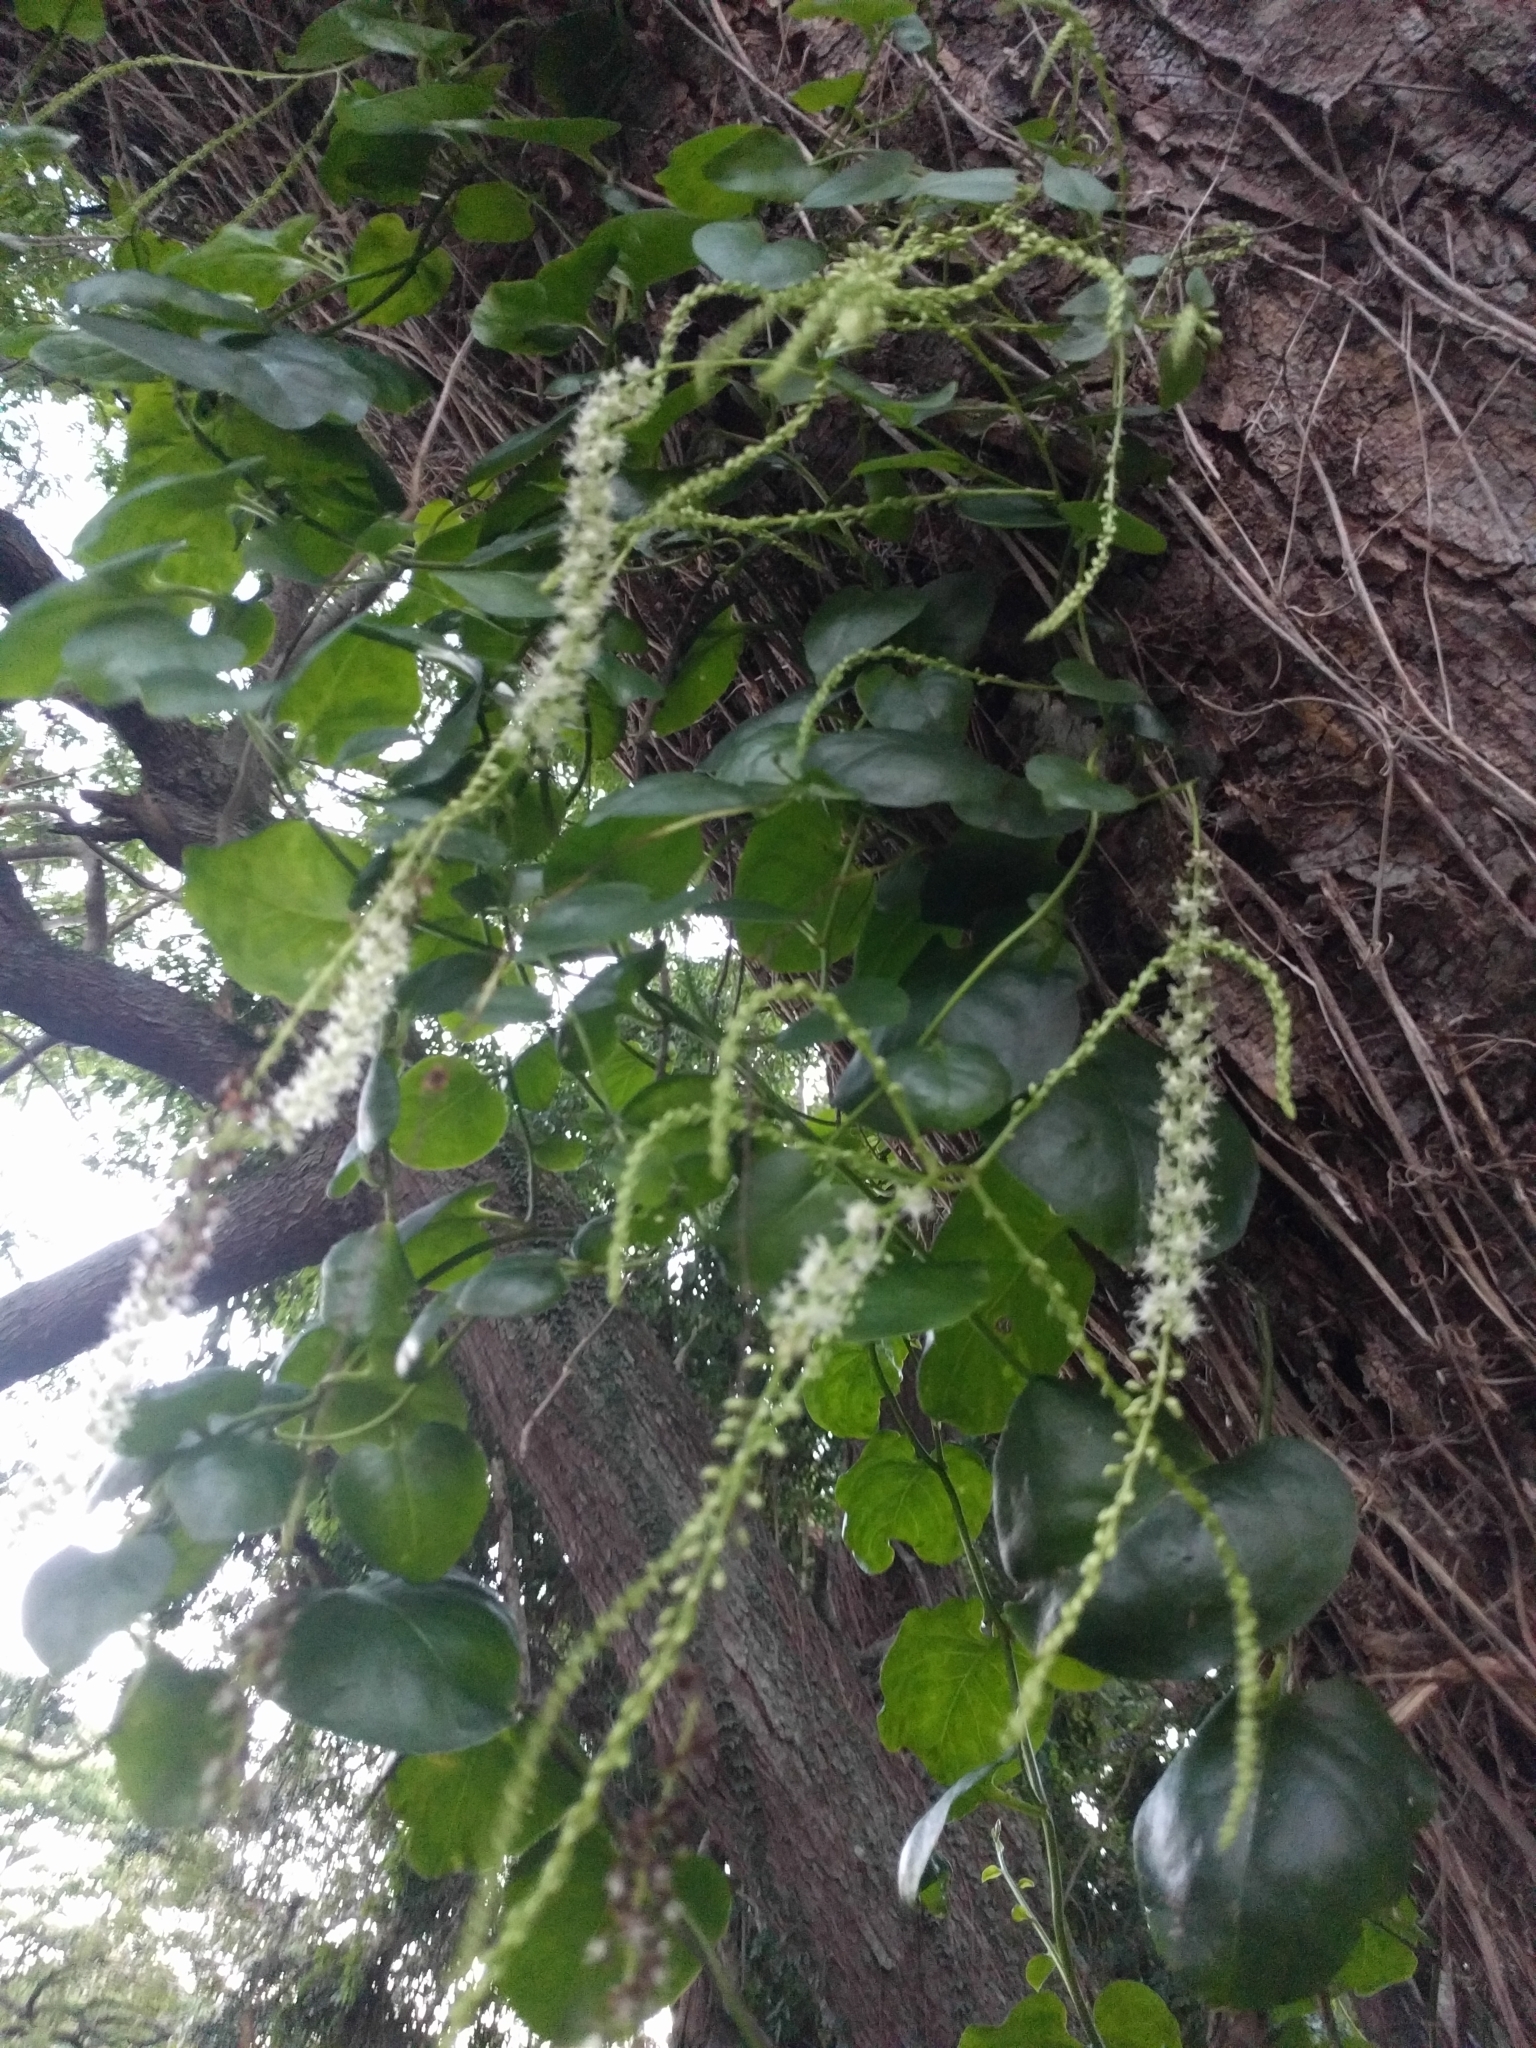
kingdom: Plantae
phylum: Tracheophyta
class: Magnoliopsida
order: Caryophyllales
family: Basellaceae
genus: Anredera
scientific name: Anredera cordifolia
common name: Heartleaf madeiravine
